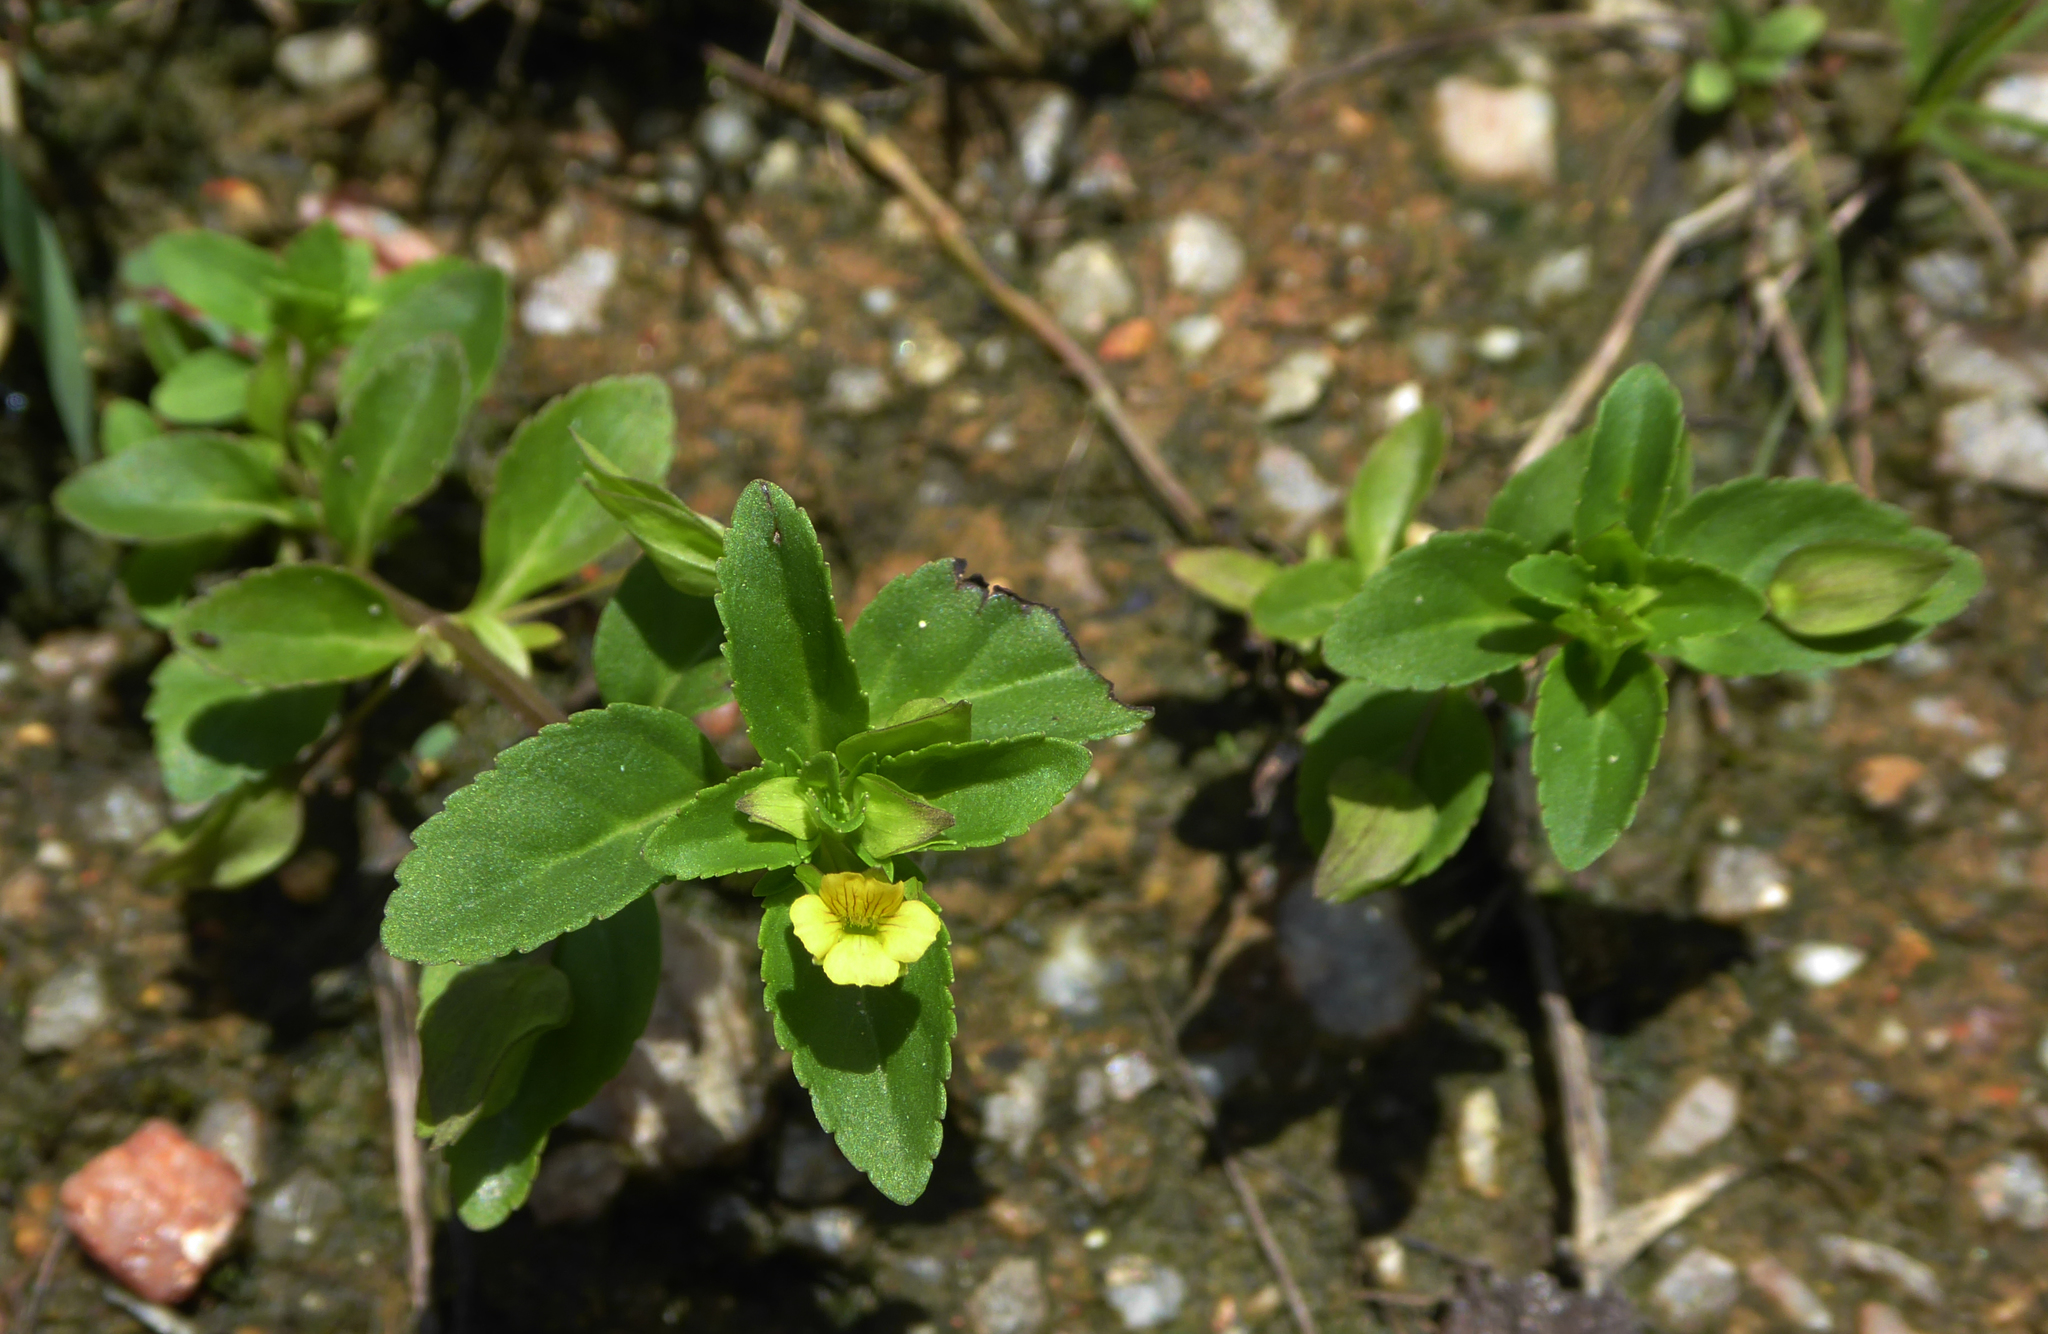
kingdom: Plantae
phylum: Tracheophyta
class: Magnoliopsida
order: Lamiales
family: Plantaginaceae
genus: Mecardonia
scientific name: Mecardonia procumbens
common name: Baby jump-up
